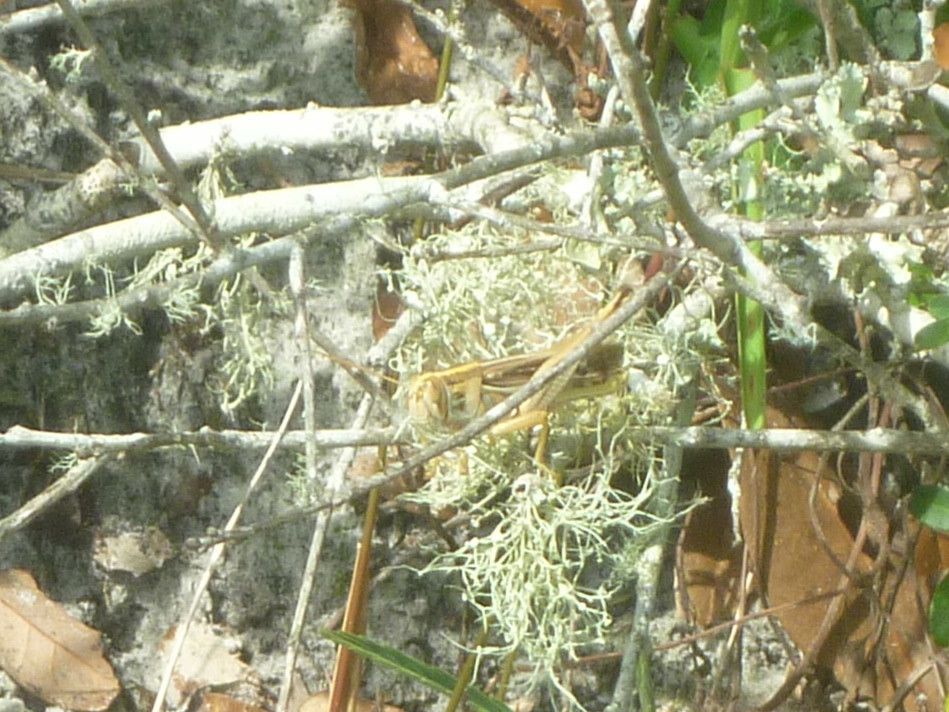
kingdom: Animalia
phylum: Arthropoda
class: Insecta
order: Orthoptera
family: Acrididae
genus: Schistocerca
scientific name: Schistocerca americana
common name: American bird locust
